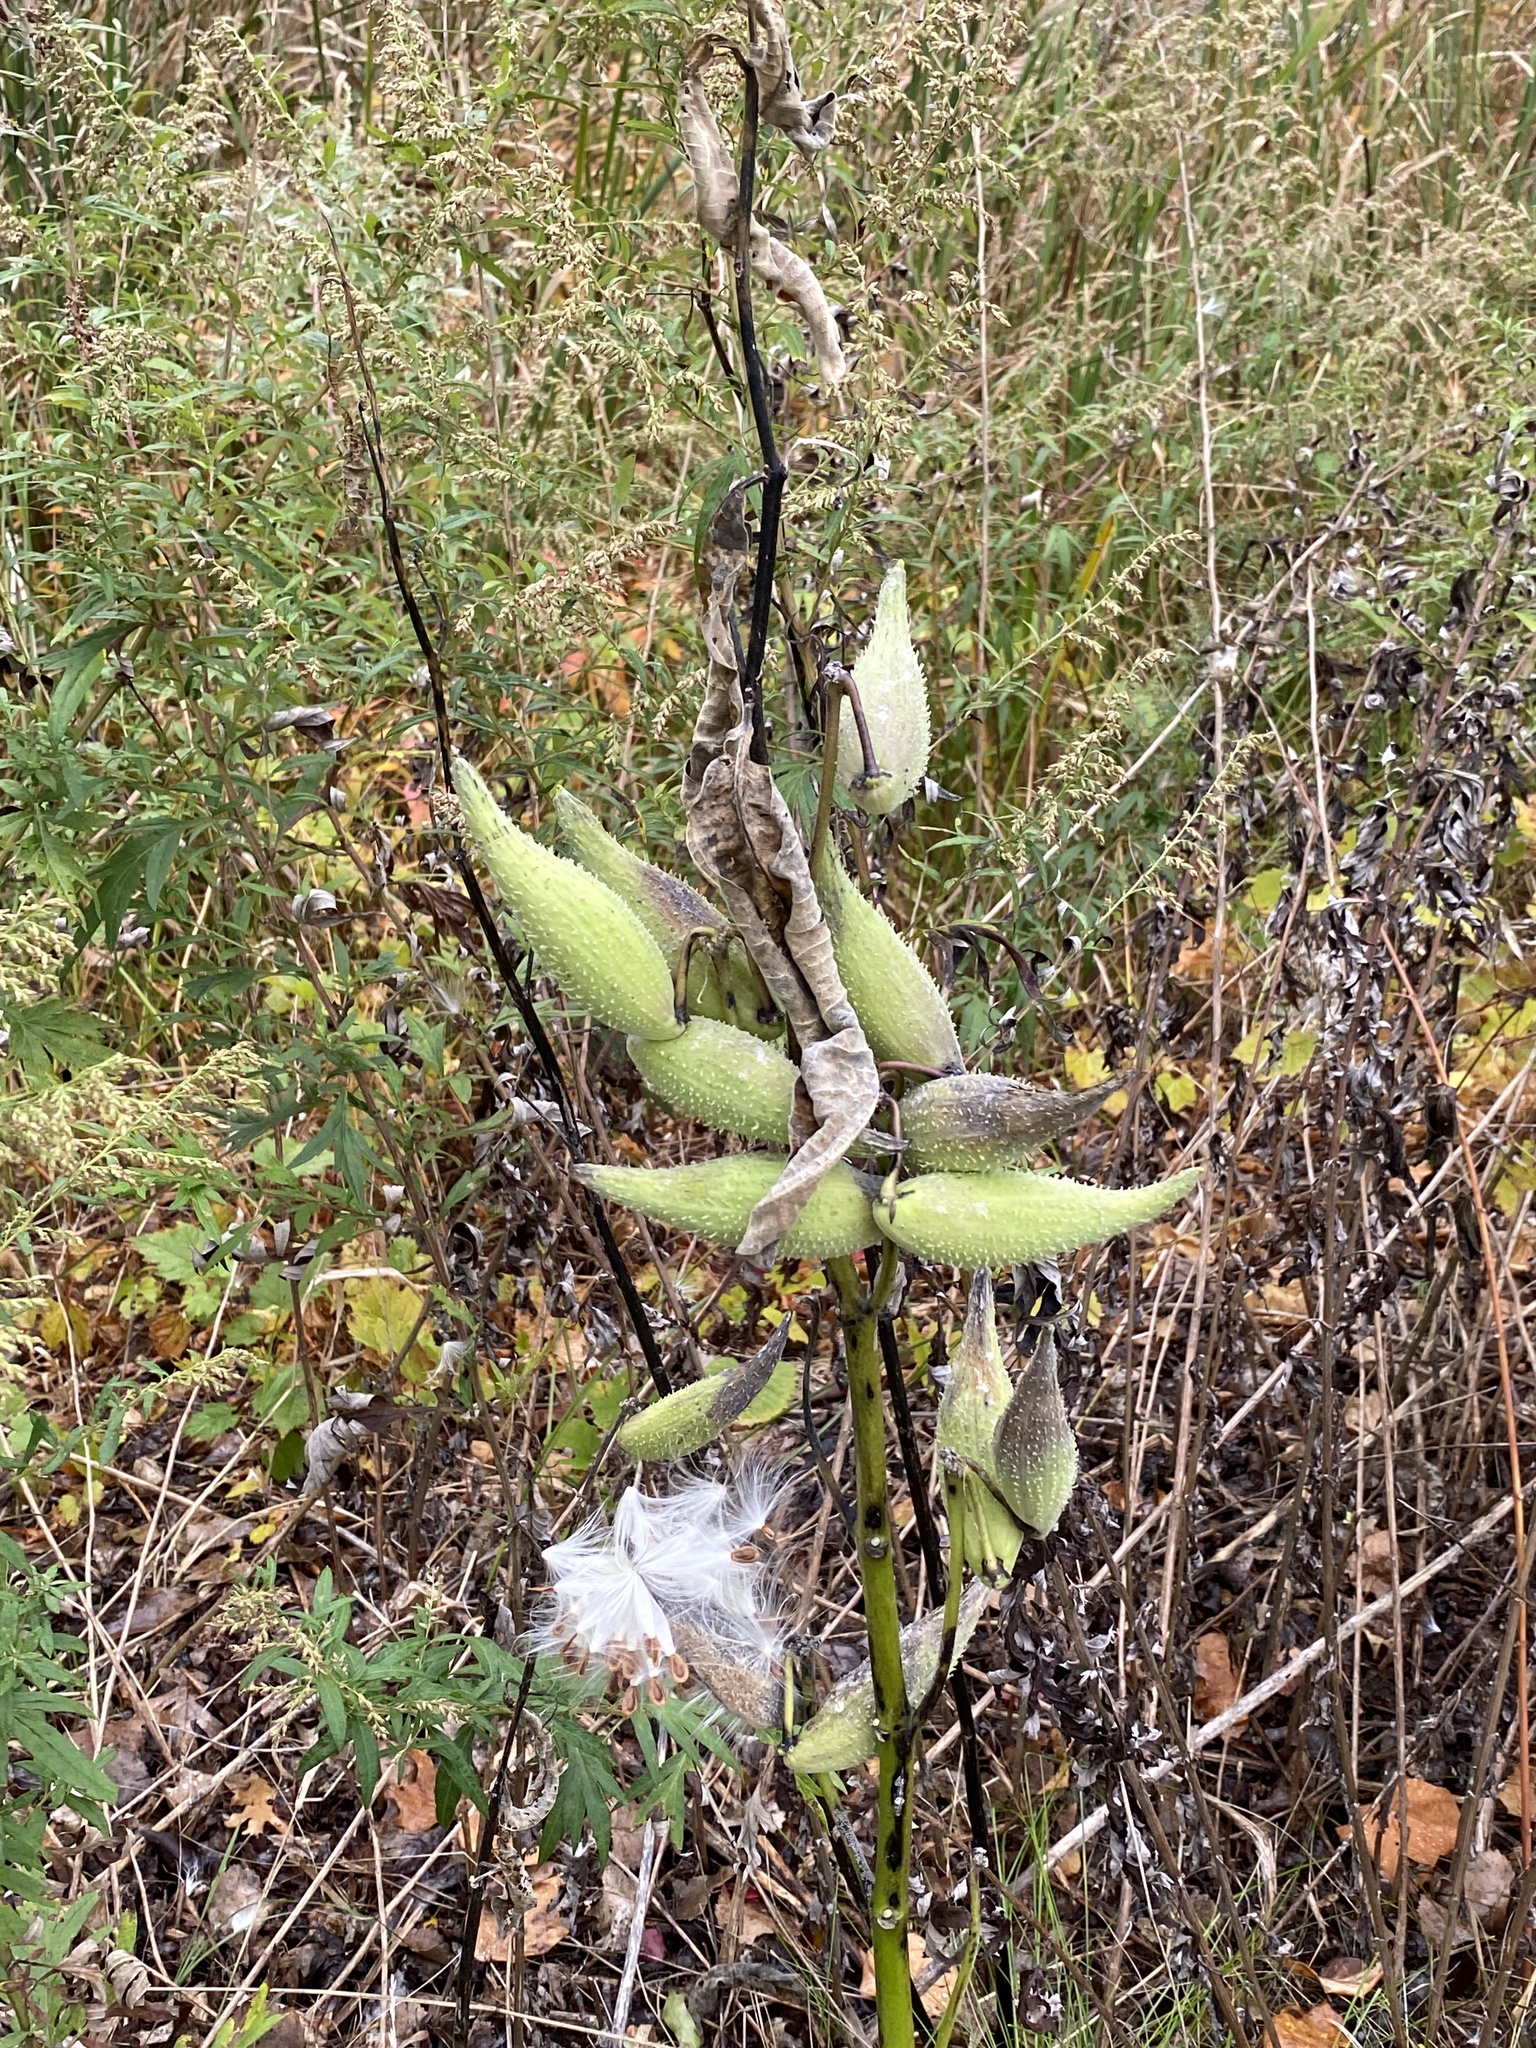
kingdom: Plantae
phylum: Tracheophyta
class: Magnoliopsida
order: Gentianales
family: Apocynaceae
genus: Asclepias
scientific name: Asclepias syriaca
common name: Common milkweed
